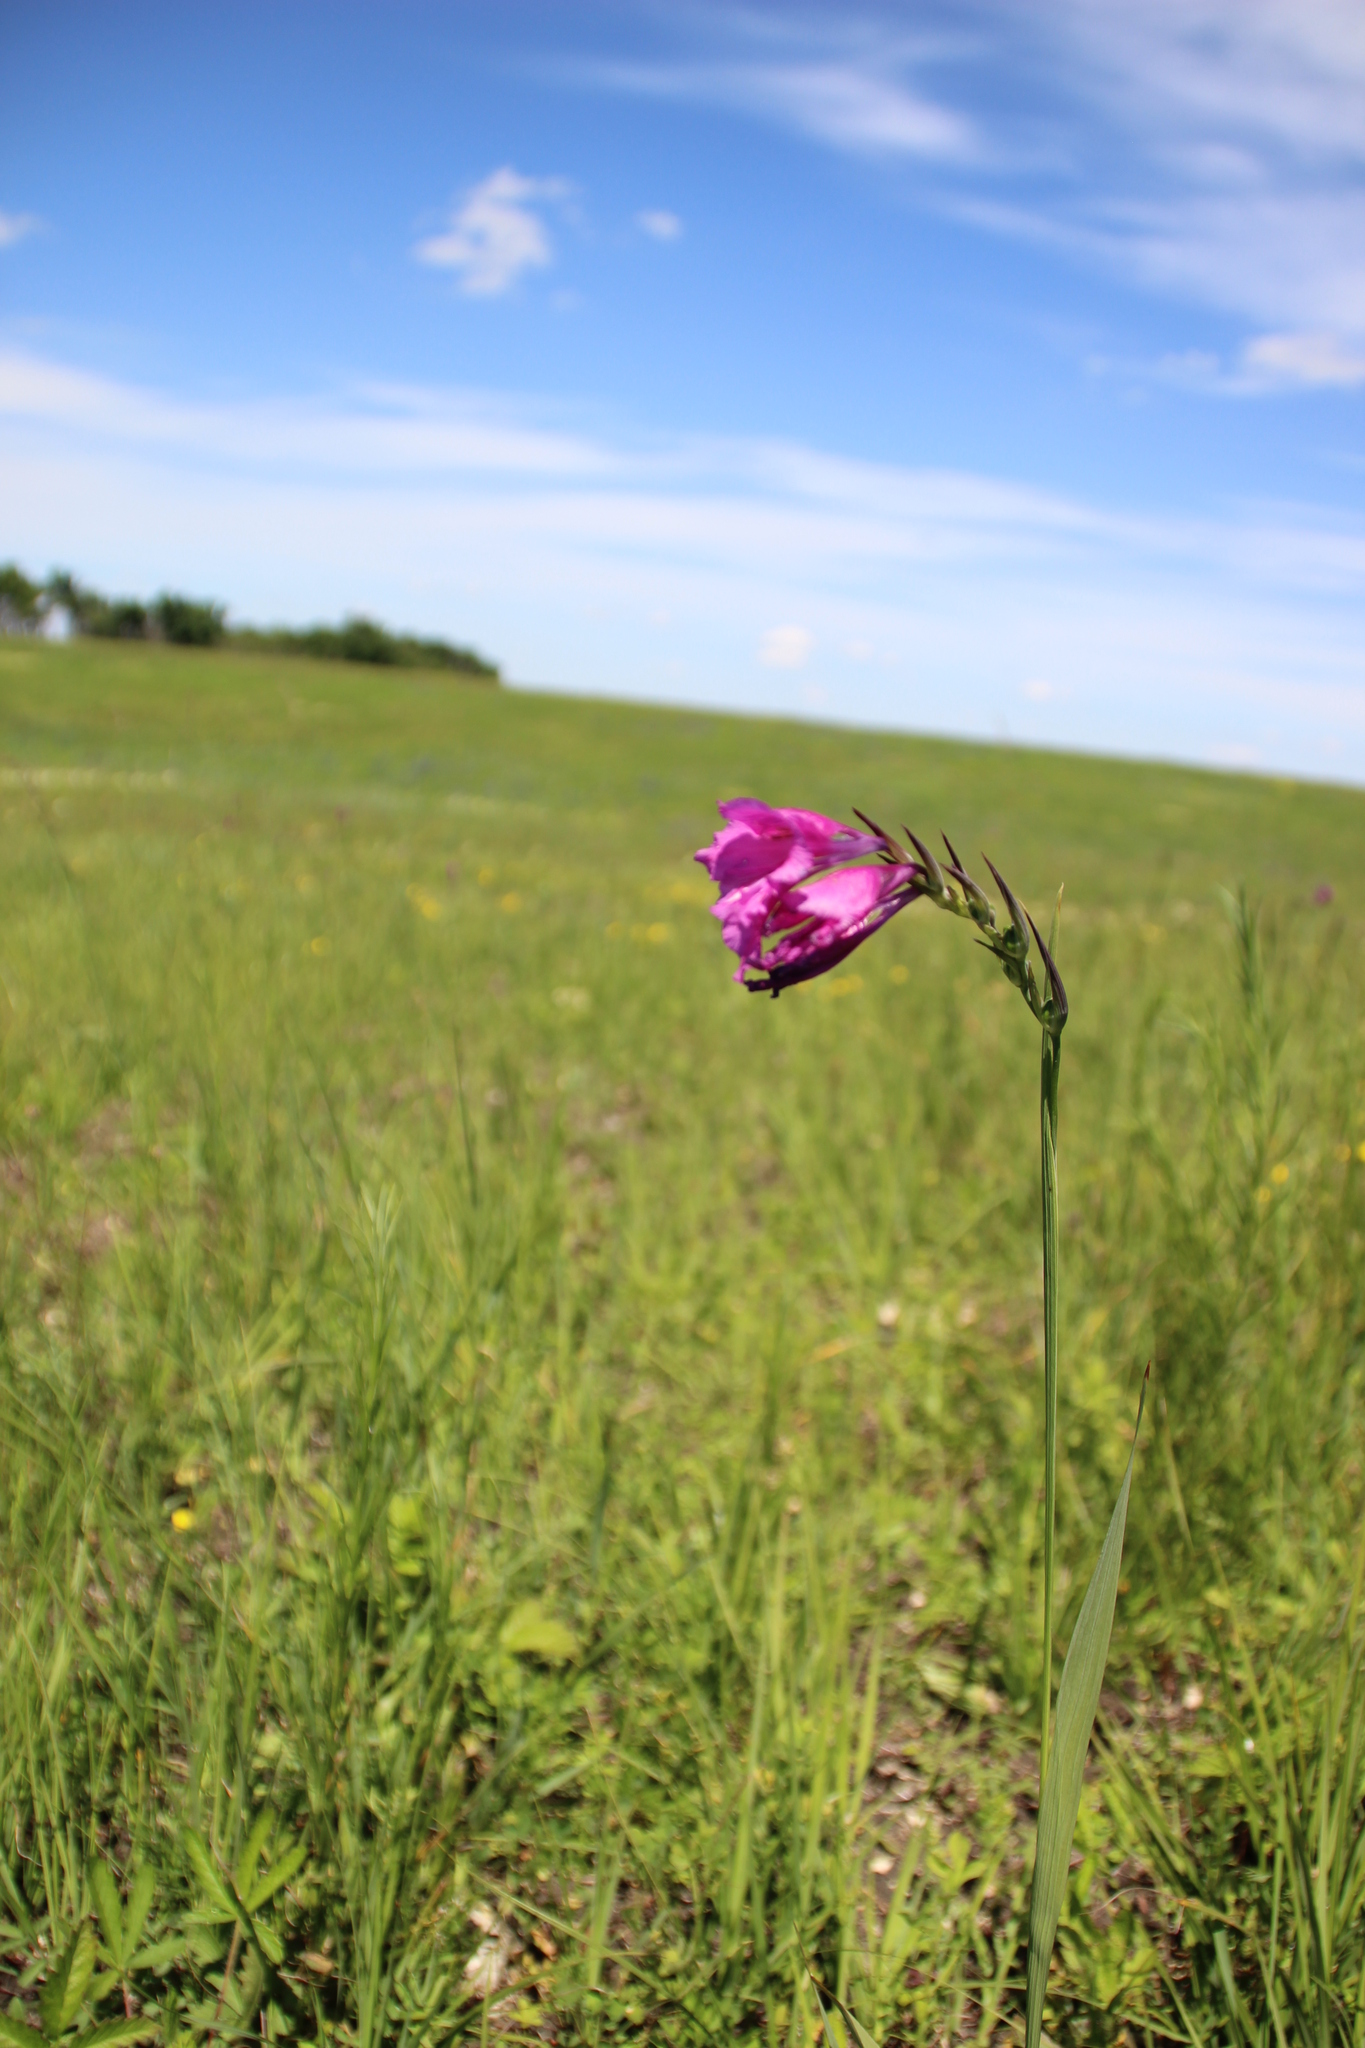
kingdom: Plantae
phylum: Tracheophyta
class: Liliopsida
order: Asparagales
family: Iridaceae
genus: Gladiolus
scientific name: Gladiolus tenuis
